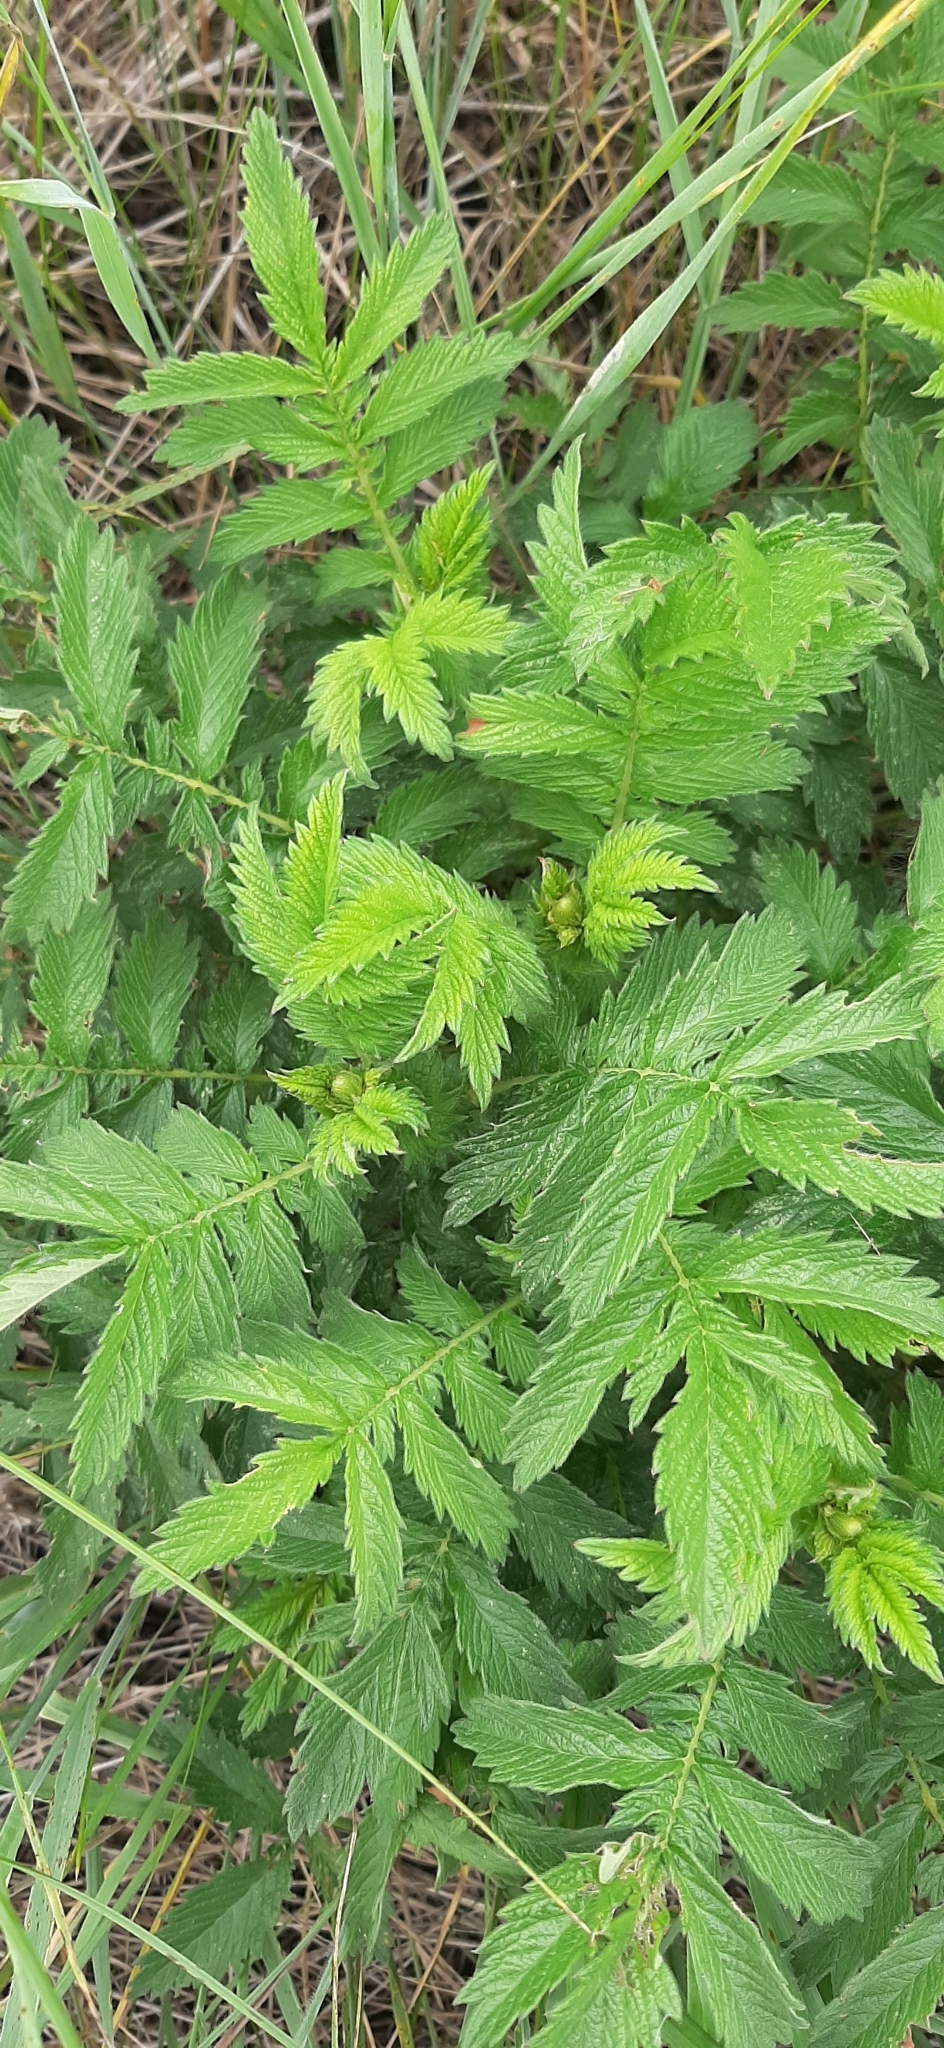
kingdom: Plantae
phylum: Tracheophyta
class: Magnoliopsida
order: Rosales
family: Rosaceae
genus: Agrimonia
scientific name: Agrimonia eupatoria
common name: Agrimony
